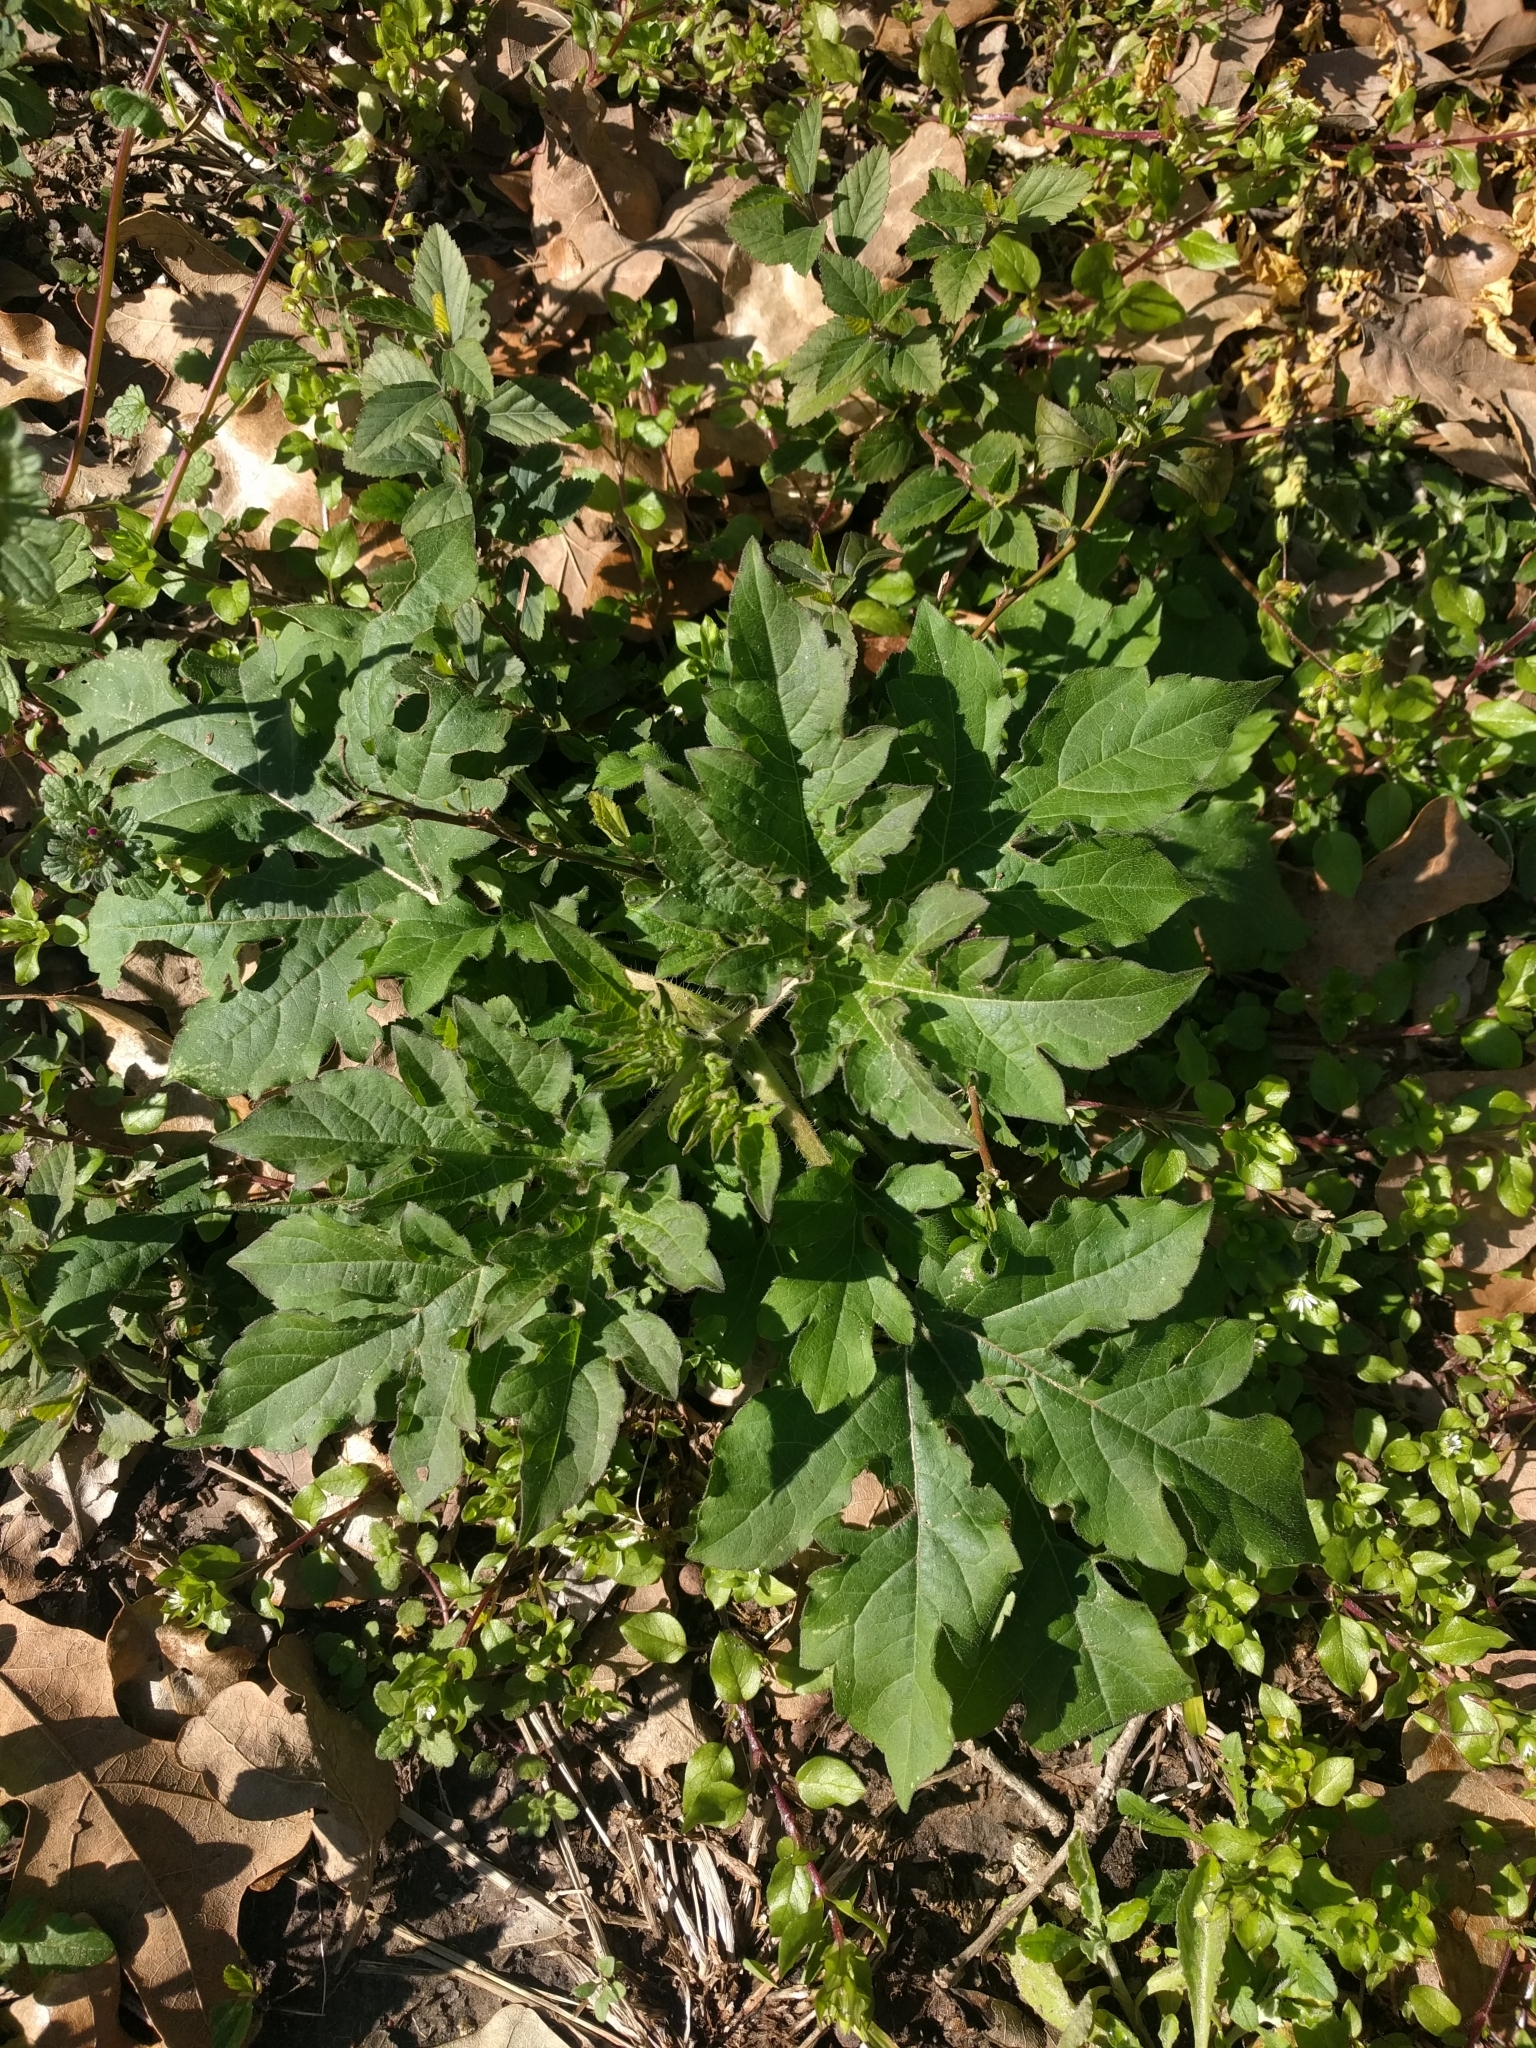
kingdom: Plantae
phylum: Tracheophyta
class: Magnoliopsida
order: Asterales
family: Asteraceae
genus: Ambrosia
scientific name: Ambrosia trifida
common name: Giant ragweed
